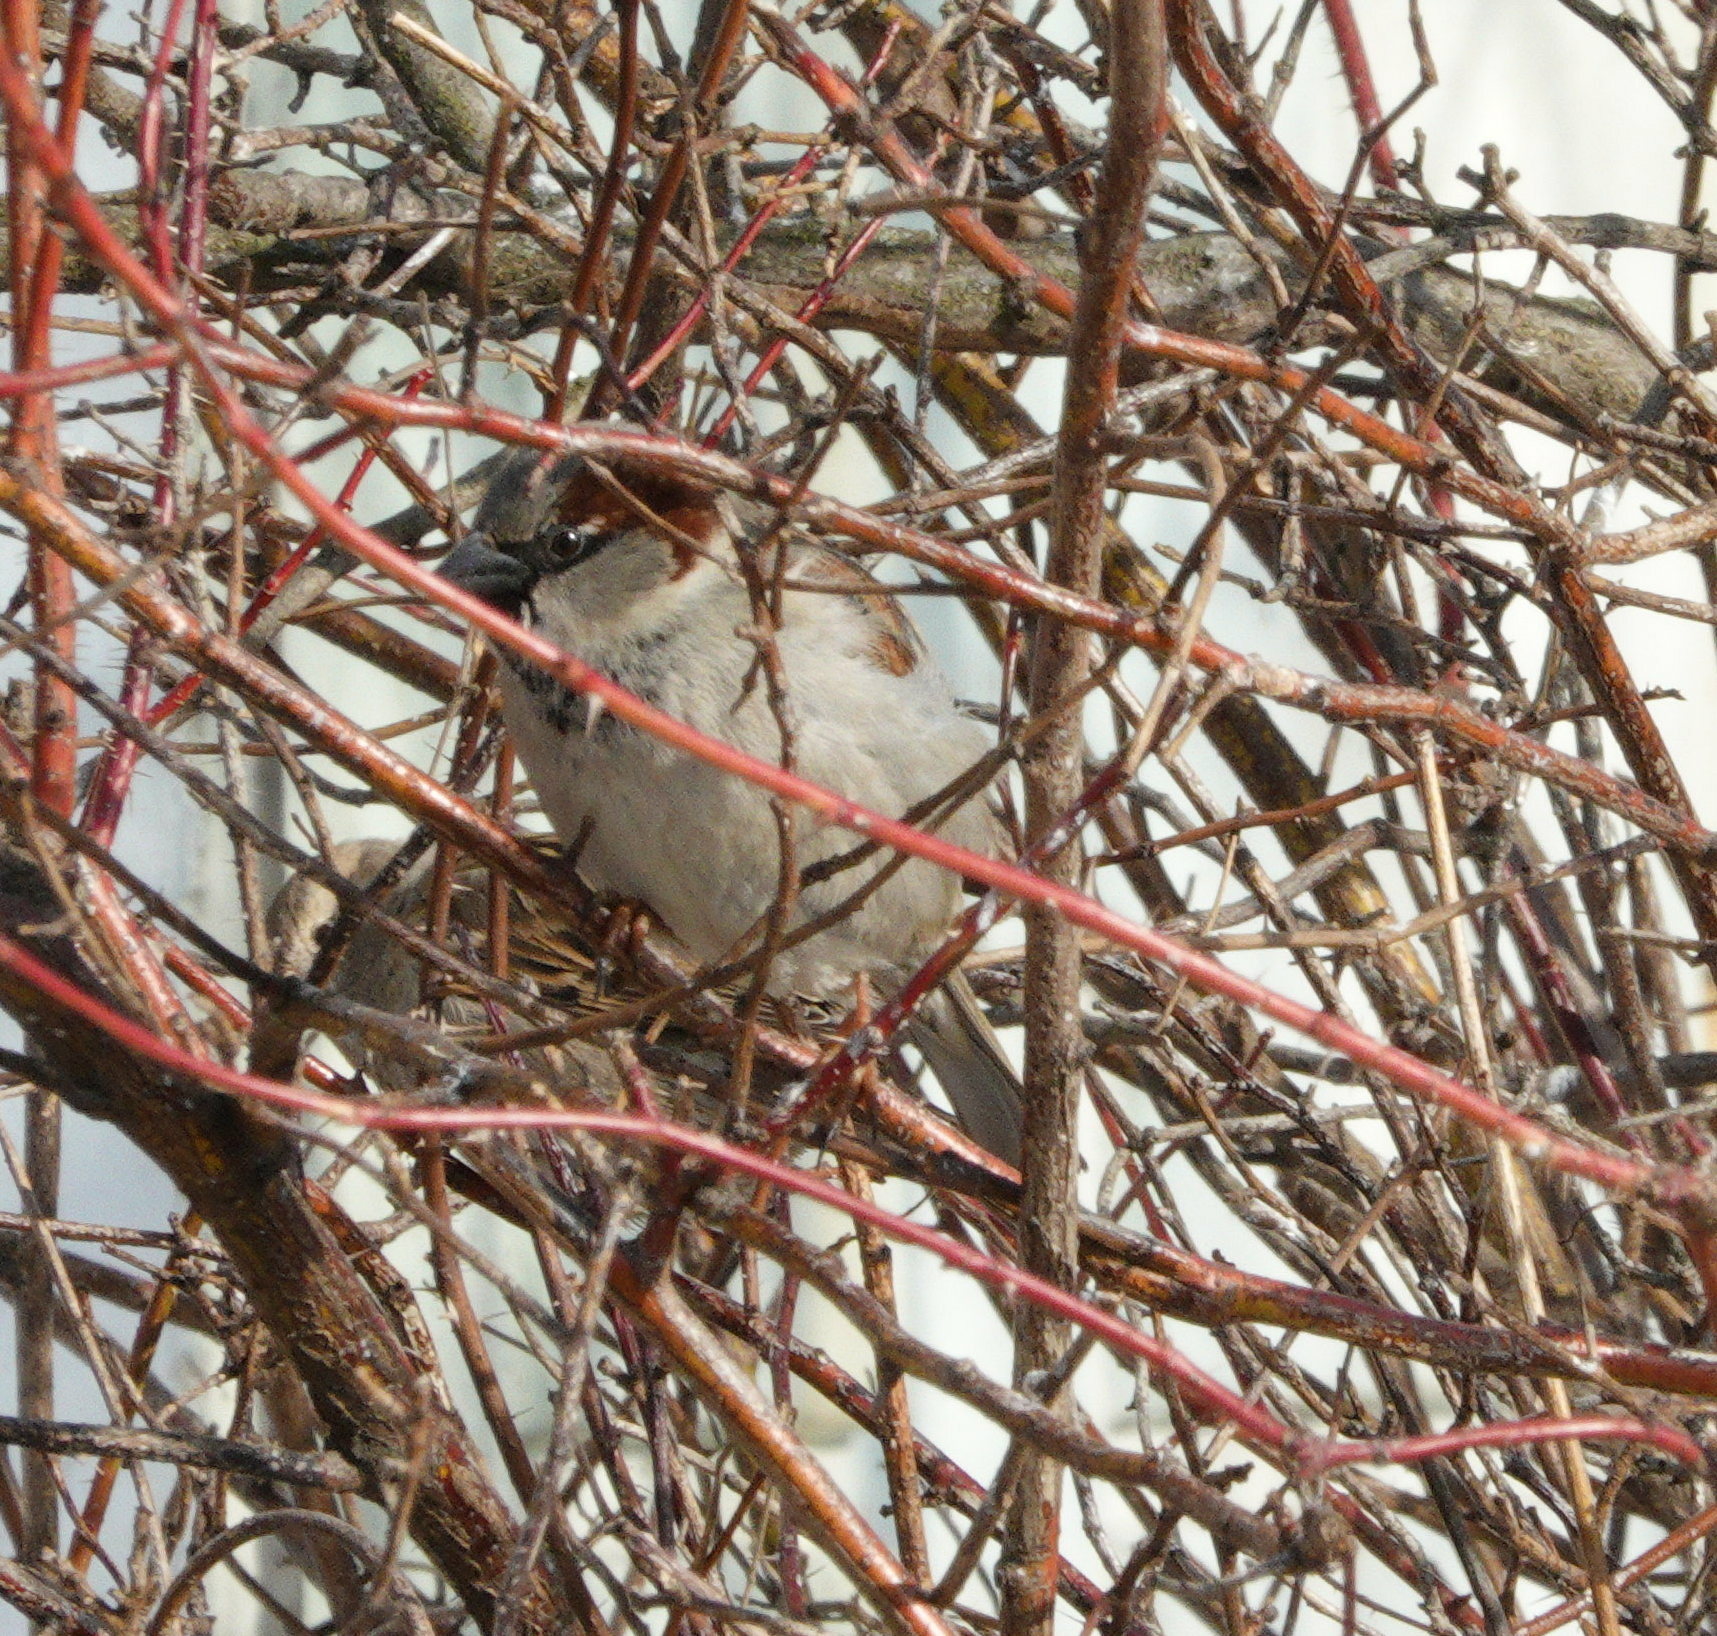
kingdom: Animalia
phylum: Chordata
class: Aves
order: Passeriformes
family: Passeridae
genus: Passer
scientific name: Passer domesticus
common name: House sparrow
